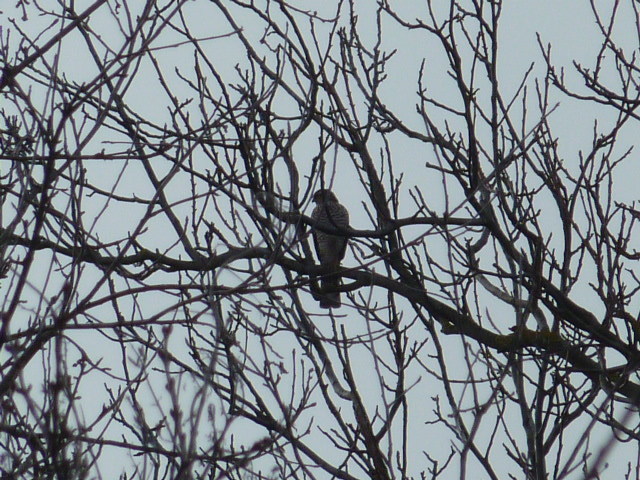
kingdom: Animalia
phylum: Chordata
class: Aves
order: Accipitriformes
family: Accipitridae
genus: Accipiter
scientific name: Accipiter nisus
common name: Eurasian sparrowhawk
